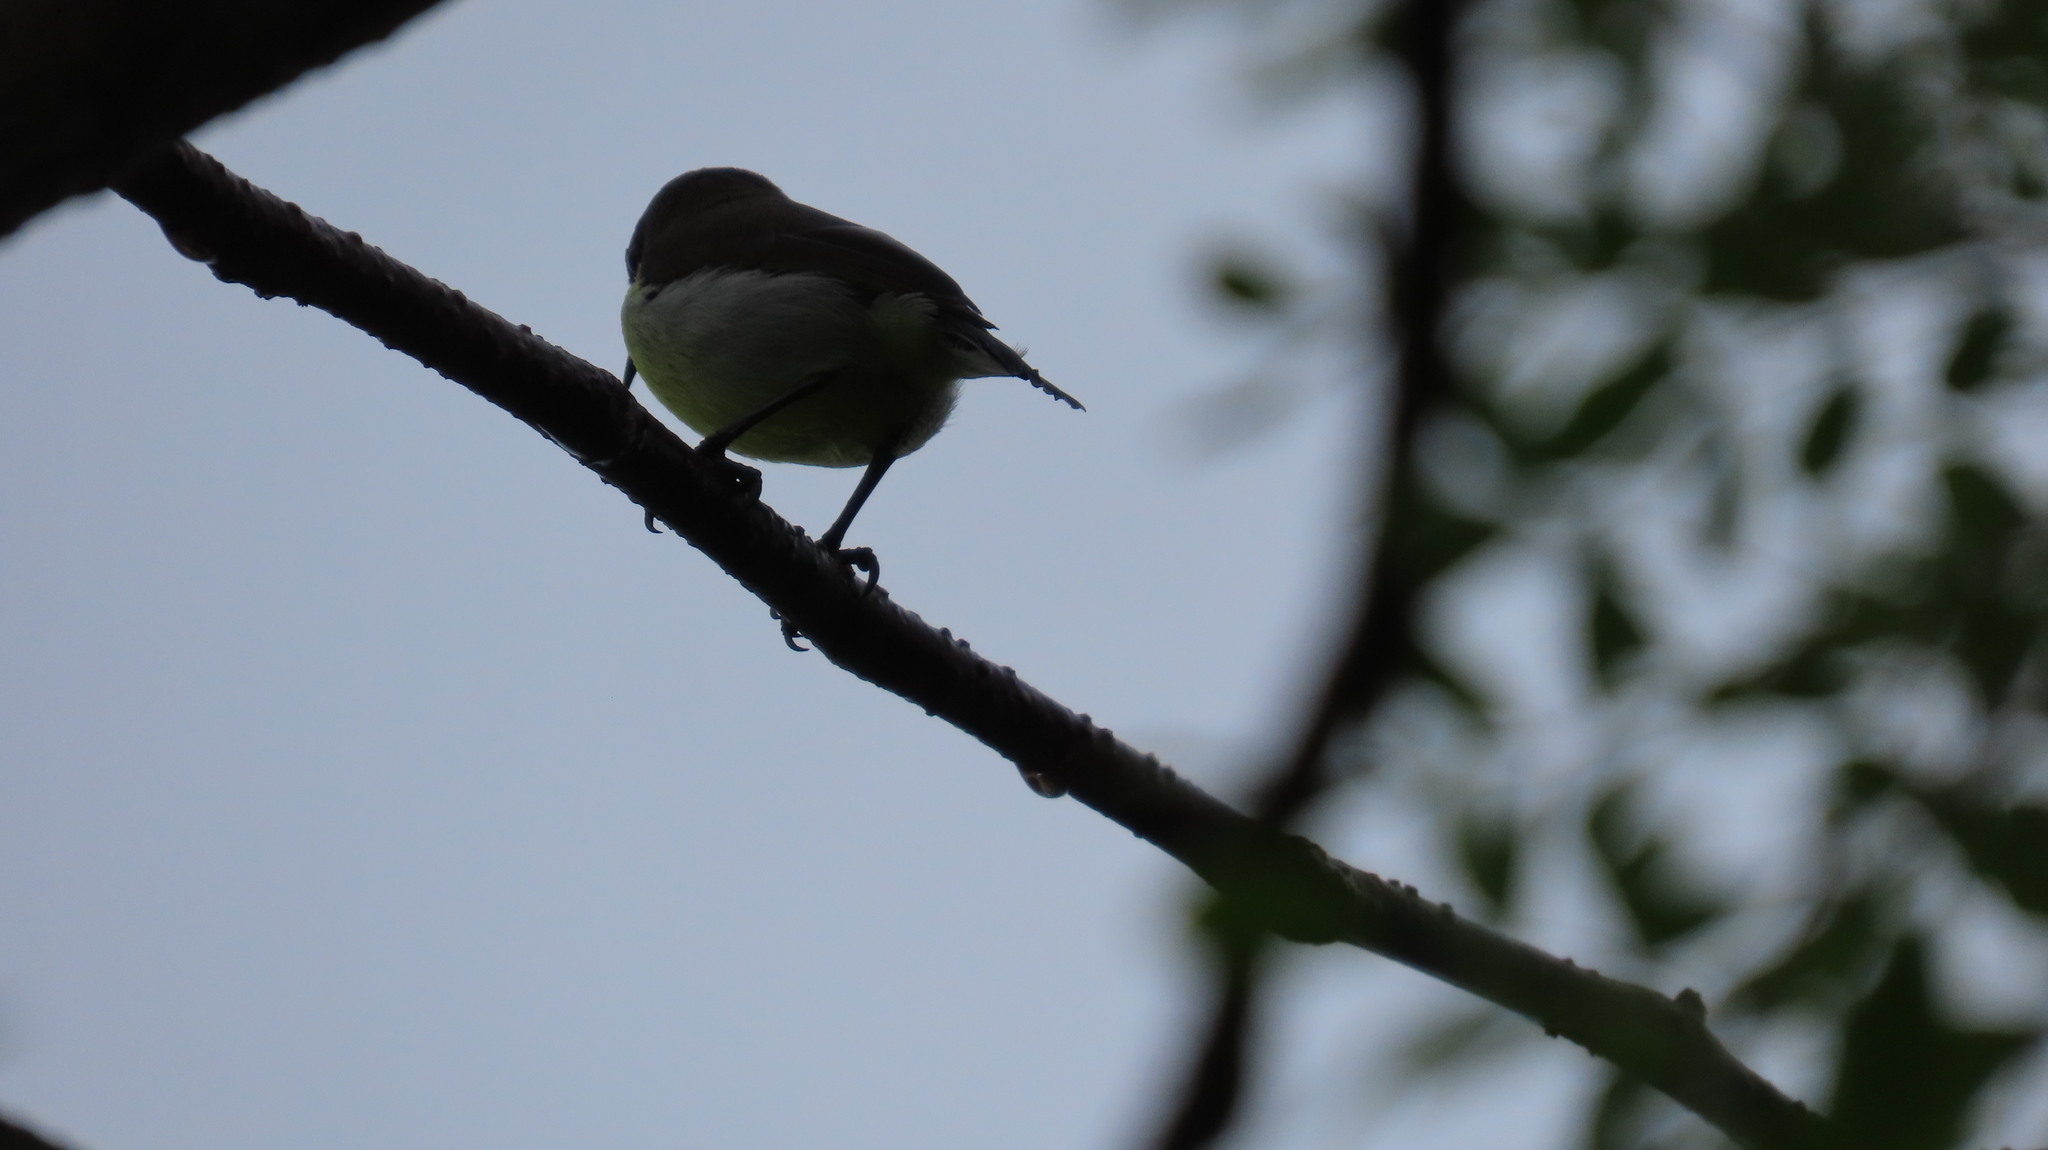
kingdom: Animalia
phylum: Chordata
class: Aves
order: Passeriformes
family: Nectariniidae
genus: Leptocoma
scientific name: Leptocoma zeylonica
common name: Purple-rumped sunbird
